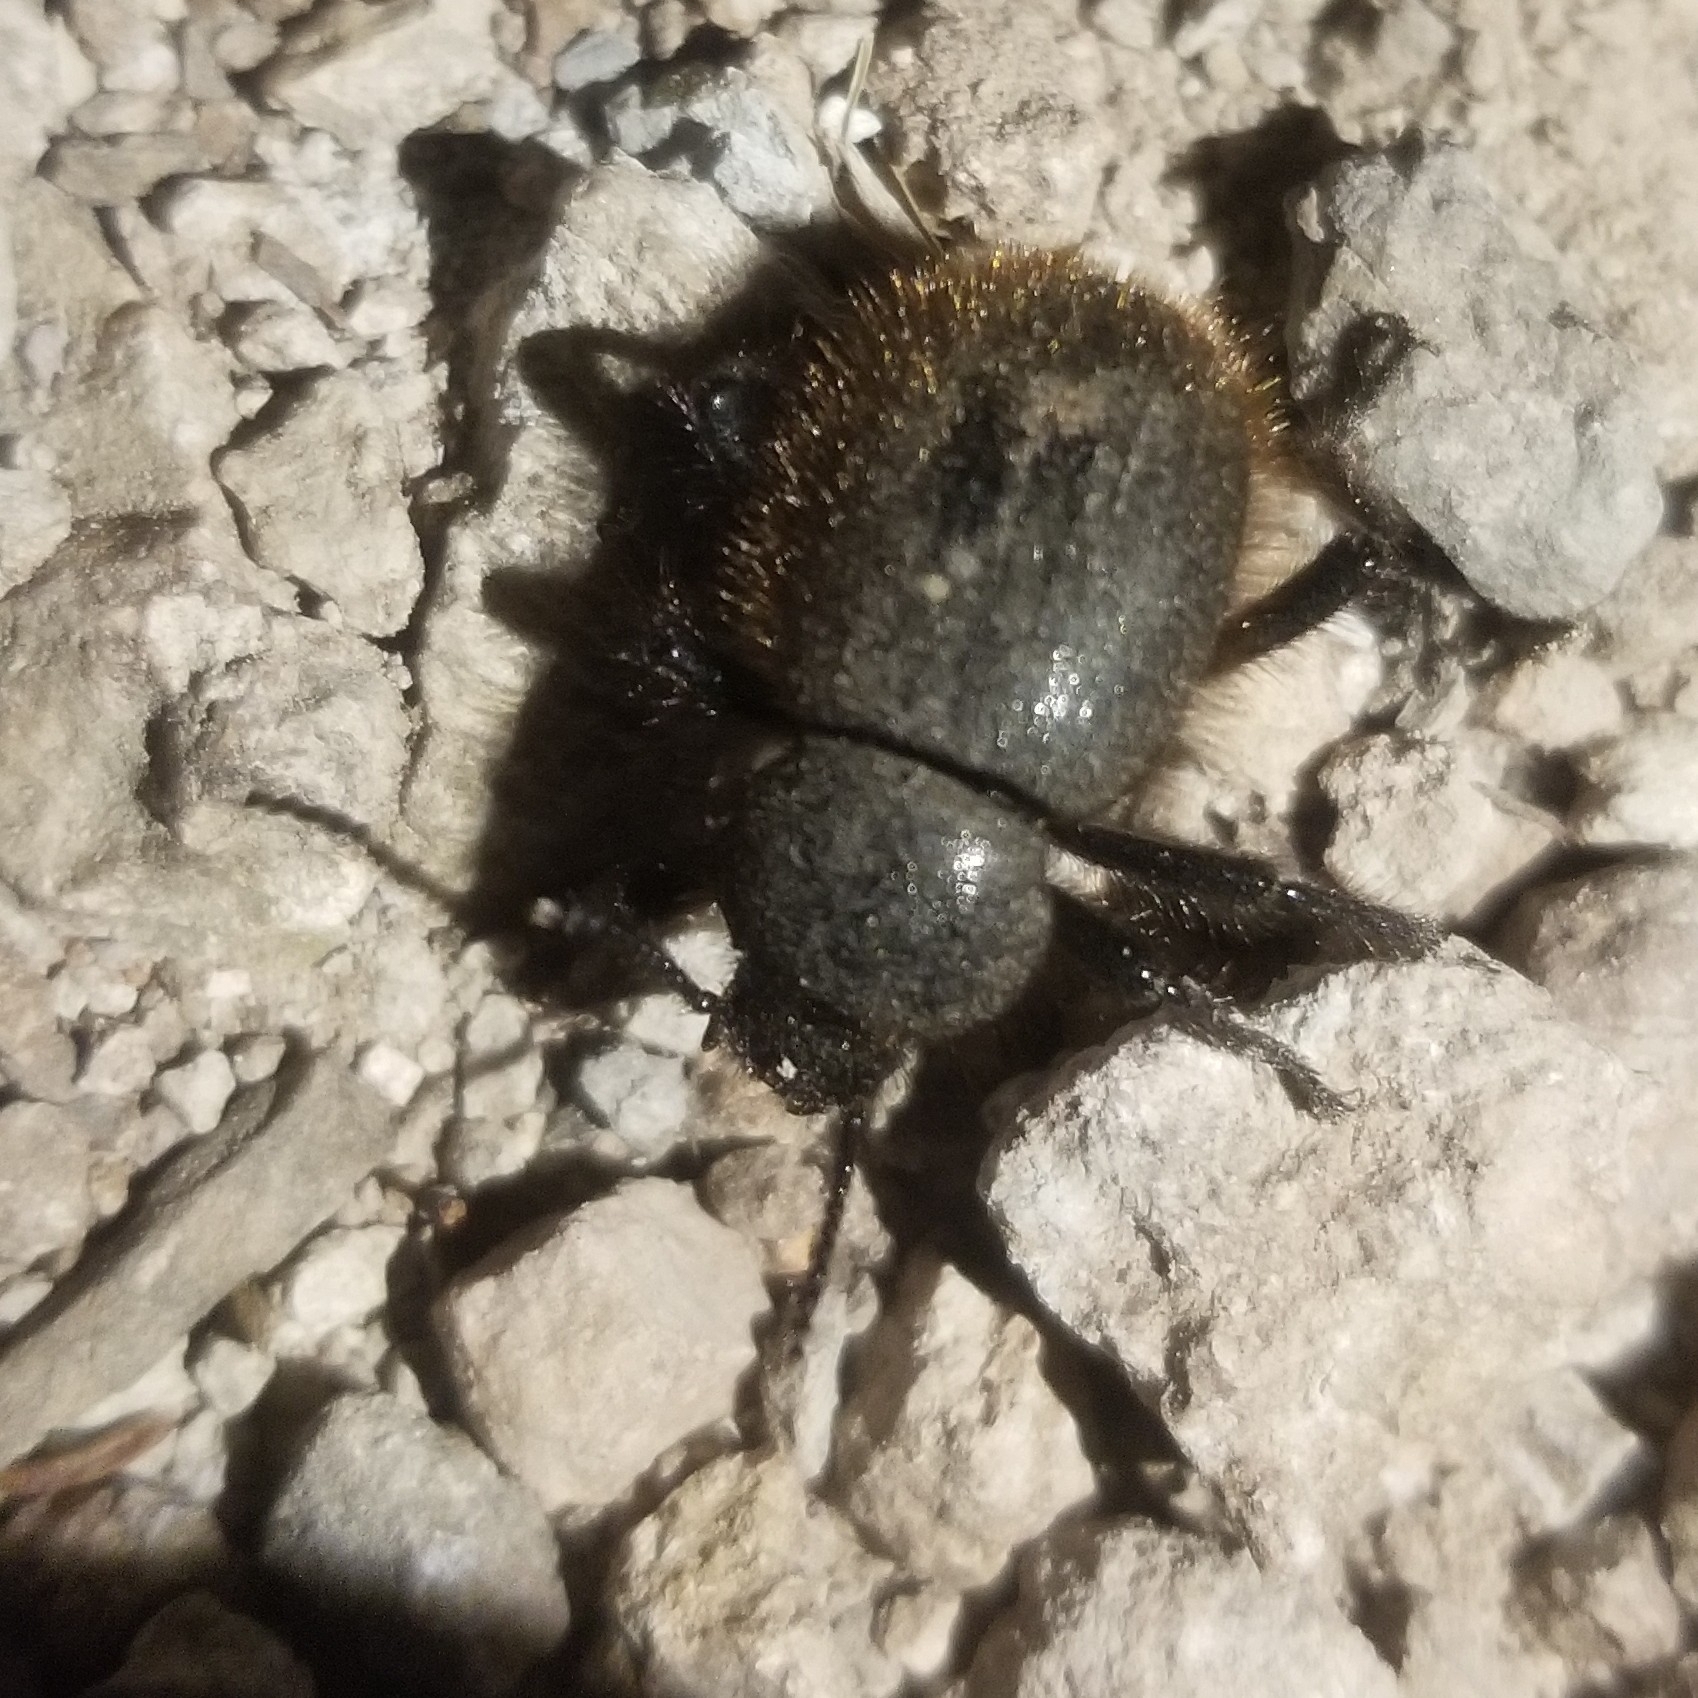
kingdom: Animalia
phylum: Arthropoda
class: Insecta
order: Coleoptera
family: Tenebrionidae
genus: Eleodes
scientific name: Eleodes osculans
